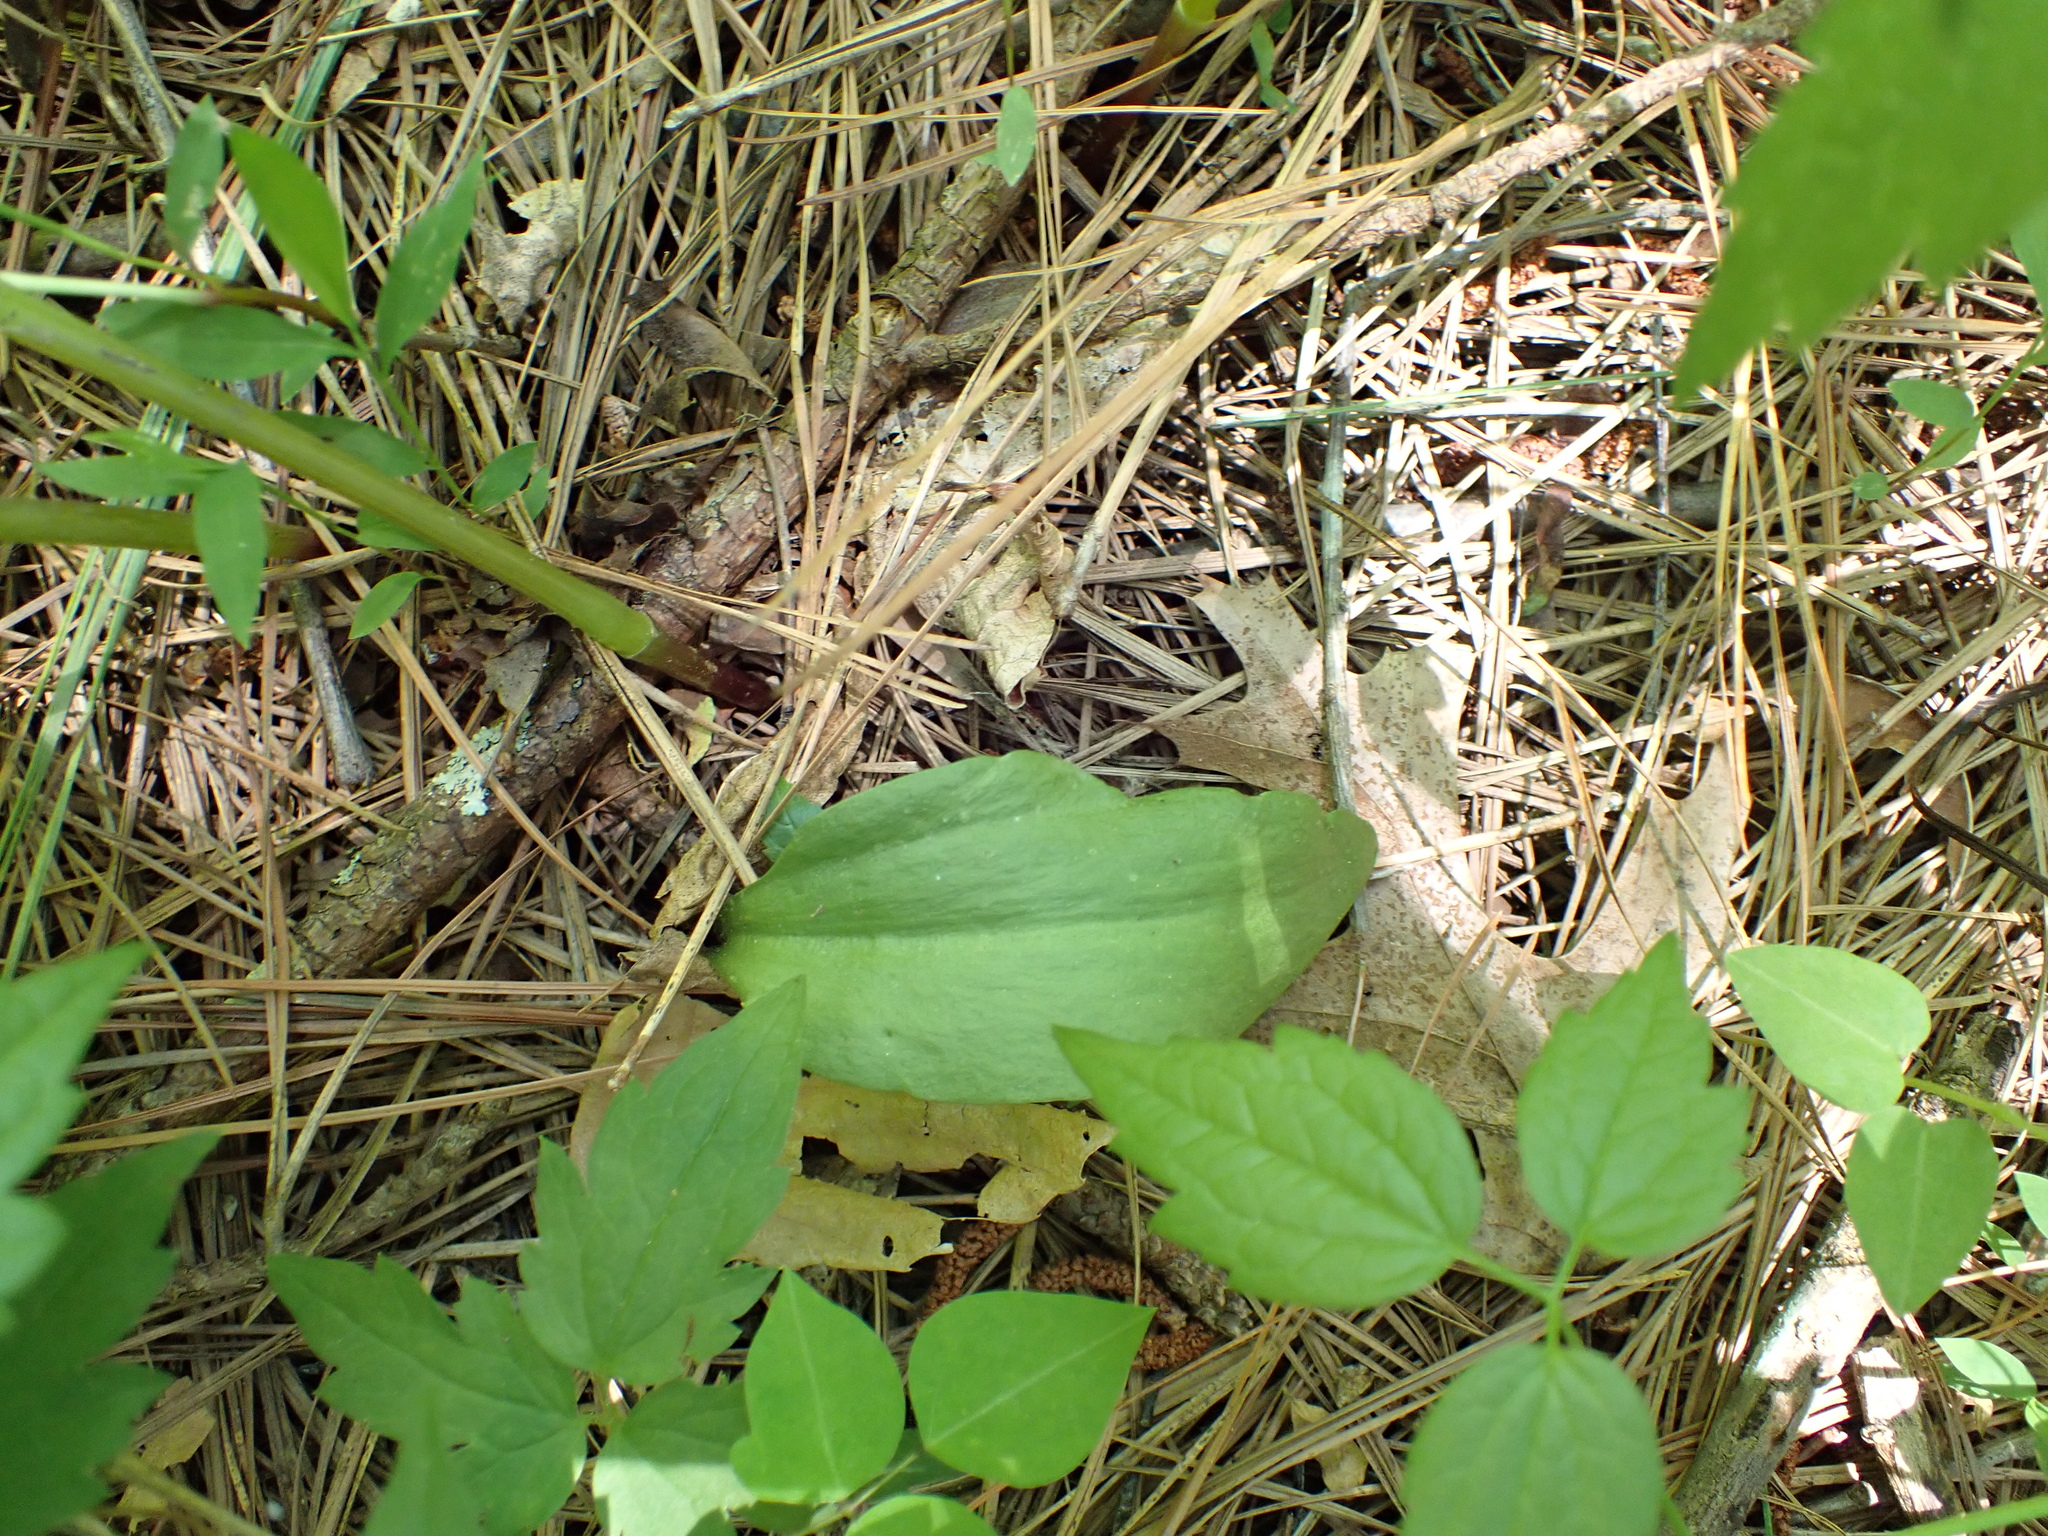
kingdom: Plantae
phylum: Tracheophyta
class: Polypodiopsida
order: Ophioglossales
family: Ophioglossaceae
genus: Ophioglossum
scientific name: Ophioglossum vulgatum
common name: Adder's-tongue
